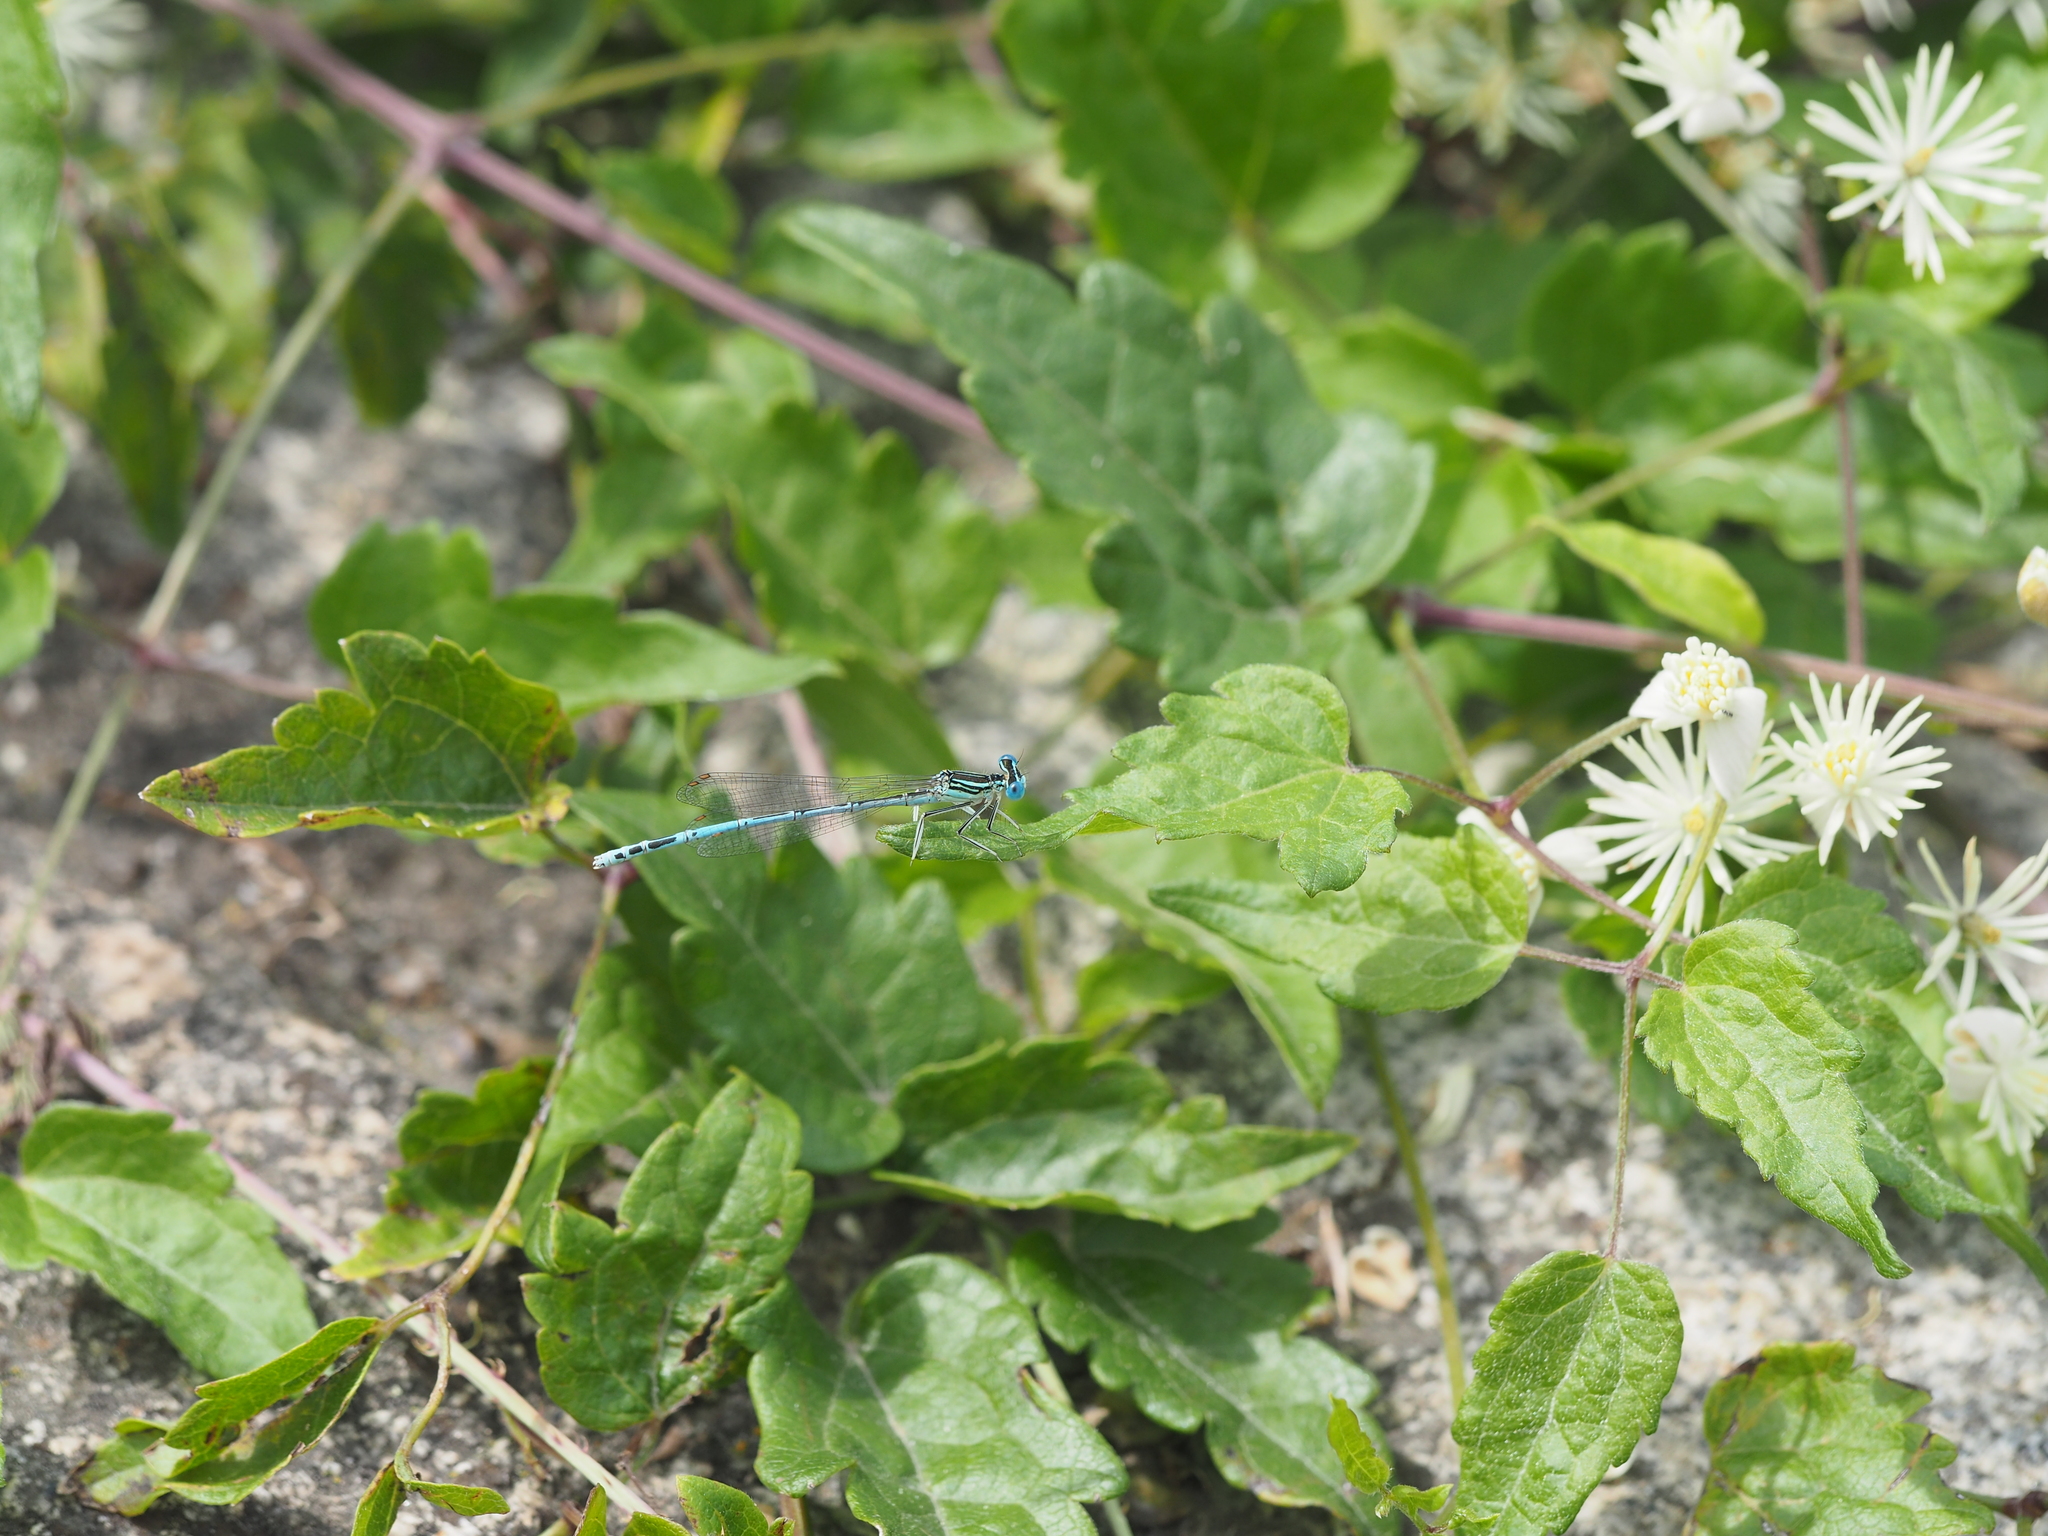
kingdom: Animalia
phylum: Arthropoda
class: Insecta
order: Odonata
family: Platycnemididae
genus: Platycnemis
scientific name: Platycnemis pennipes
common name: White-legged damselfly
